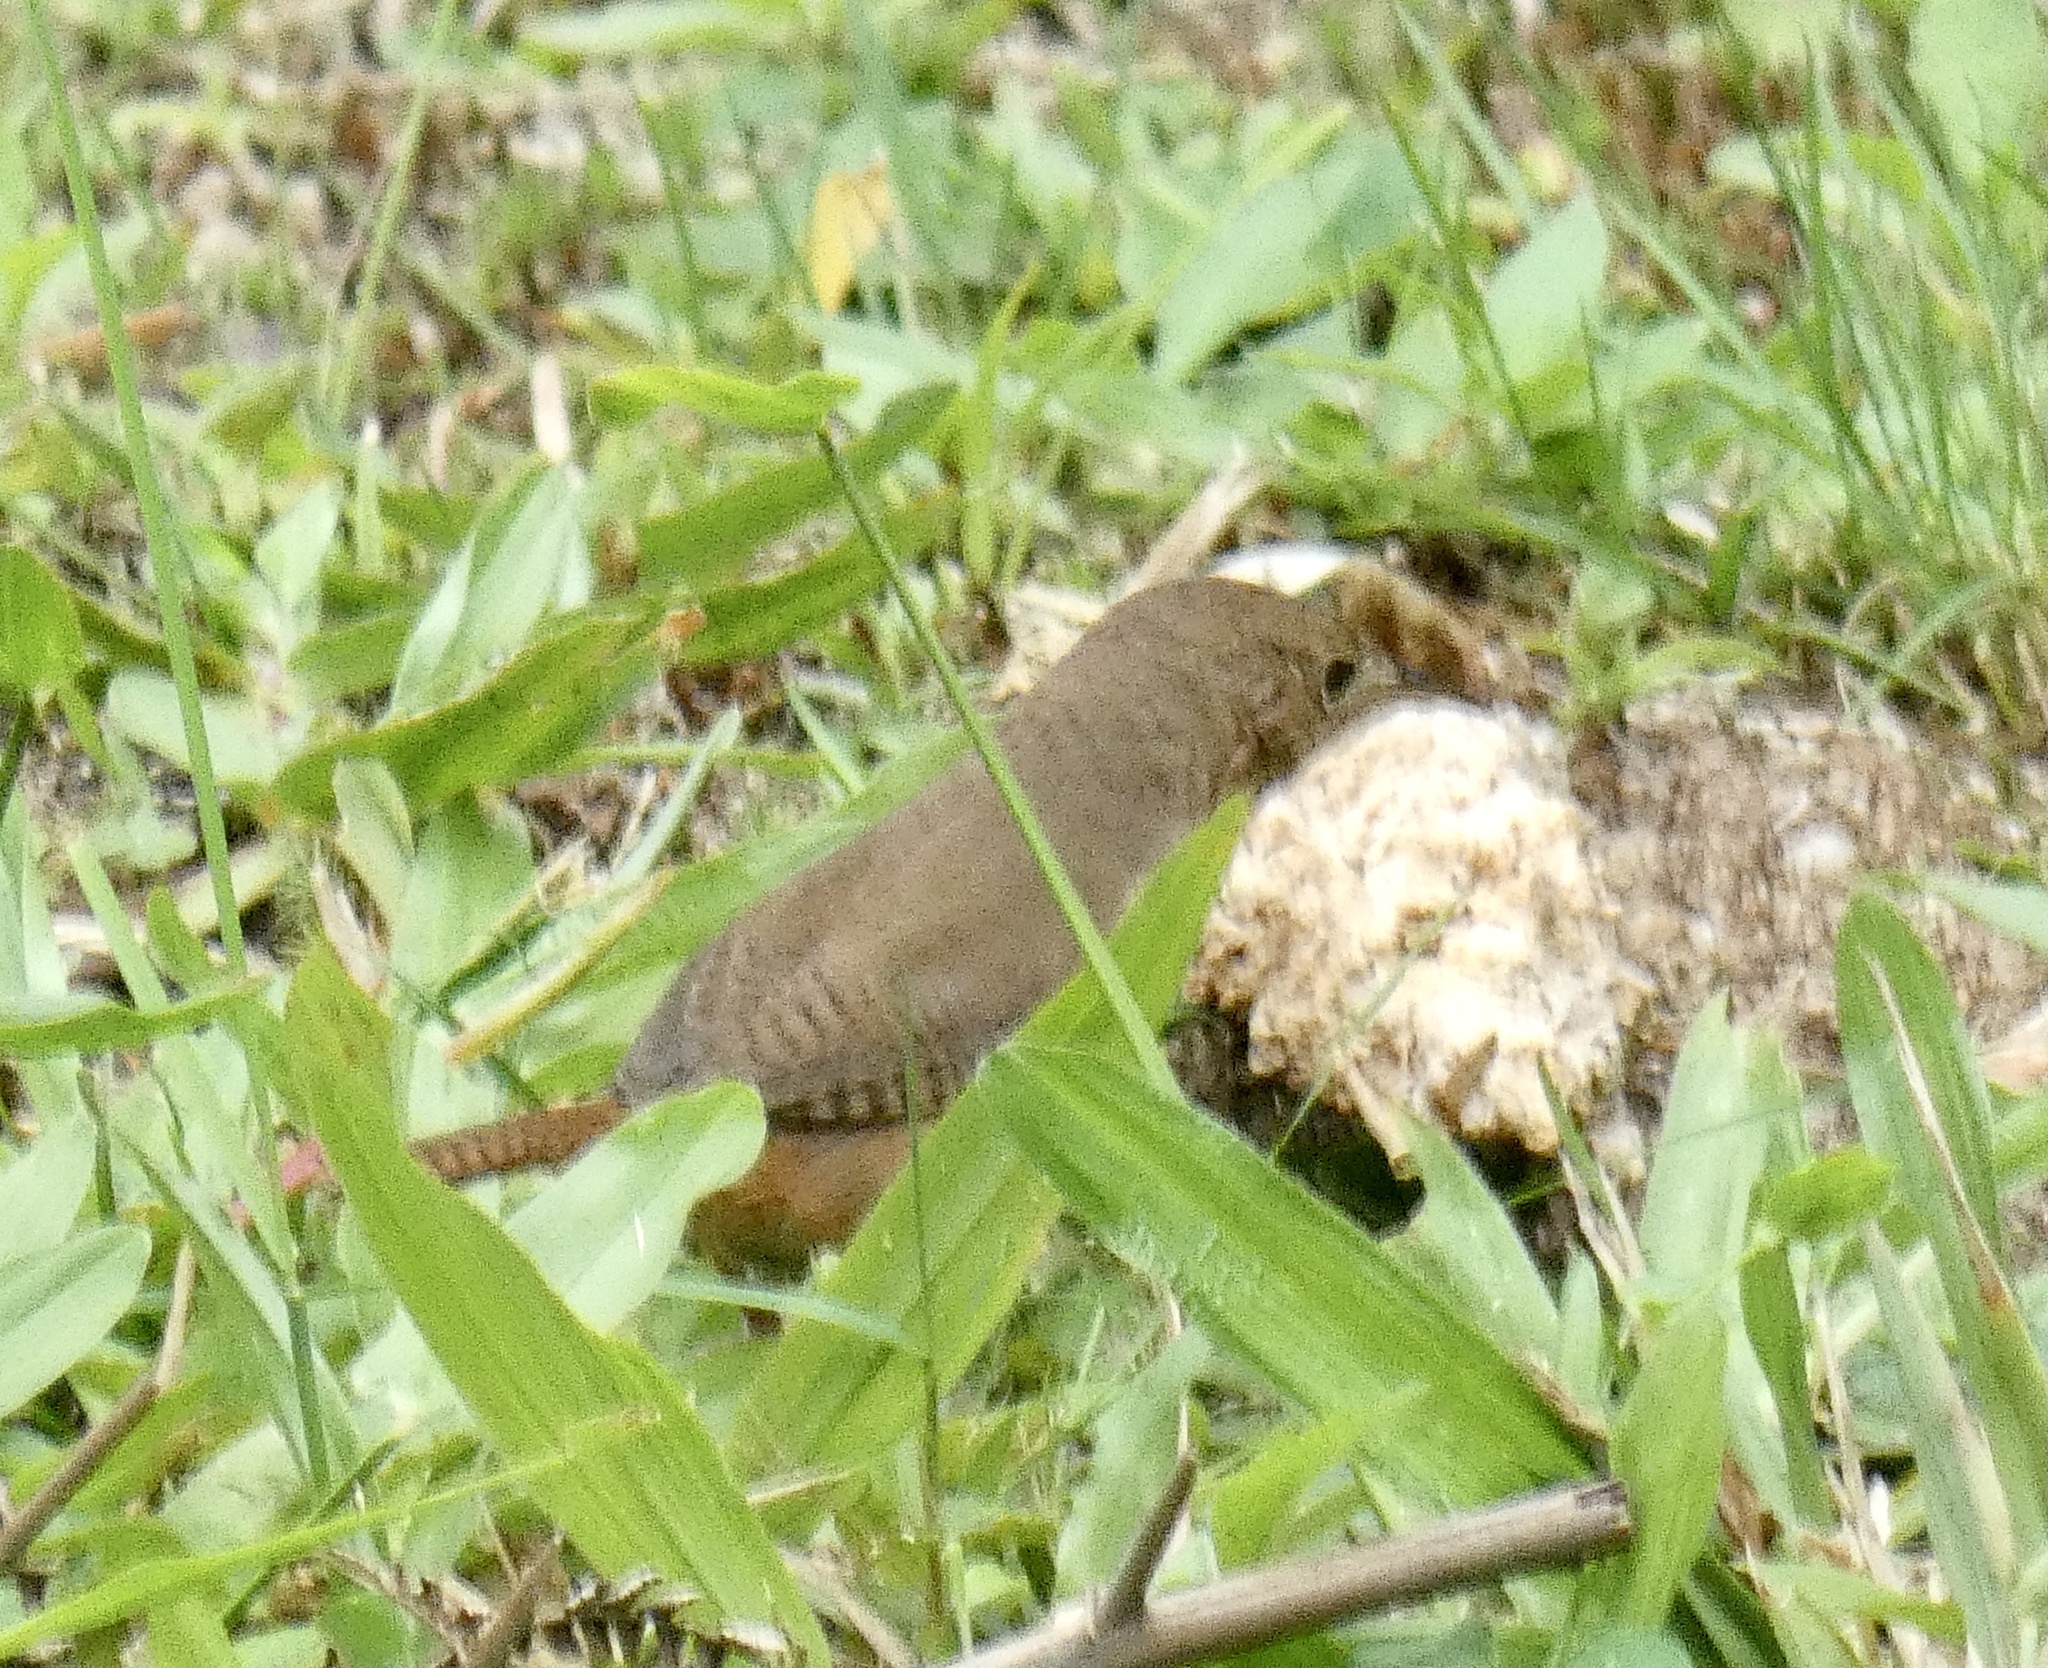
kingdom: Animalia
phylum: Chordata
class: Aves
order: Passeriformes
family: Troglodytidae
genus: Troglodytes
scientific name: Troglodytes aedon
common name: House wren
